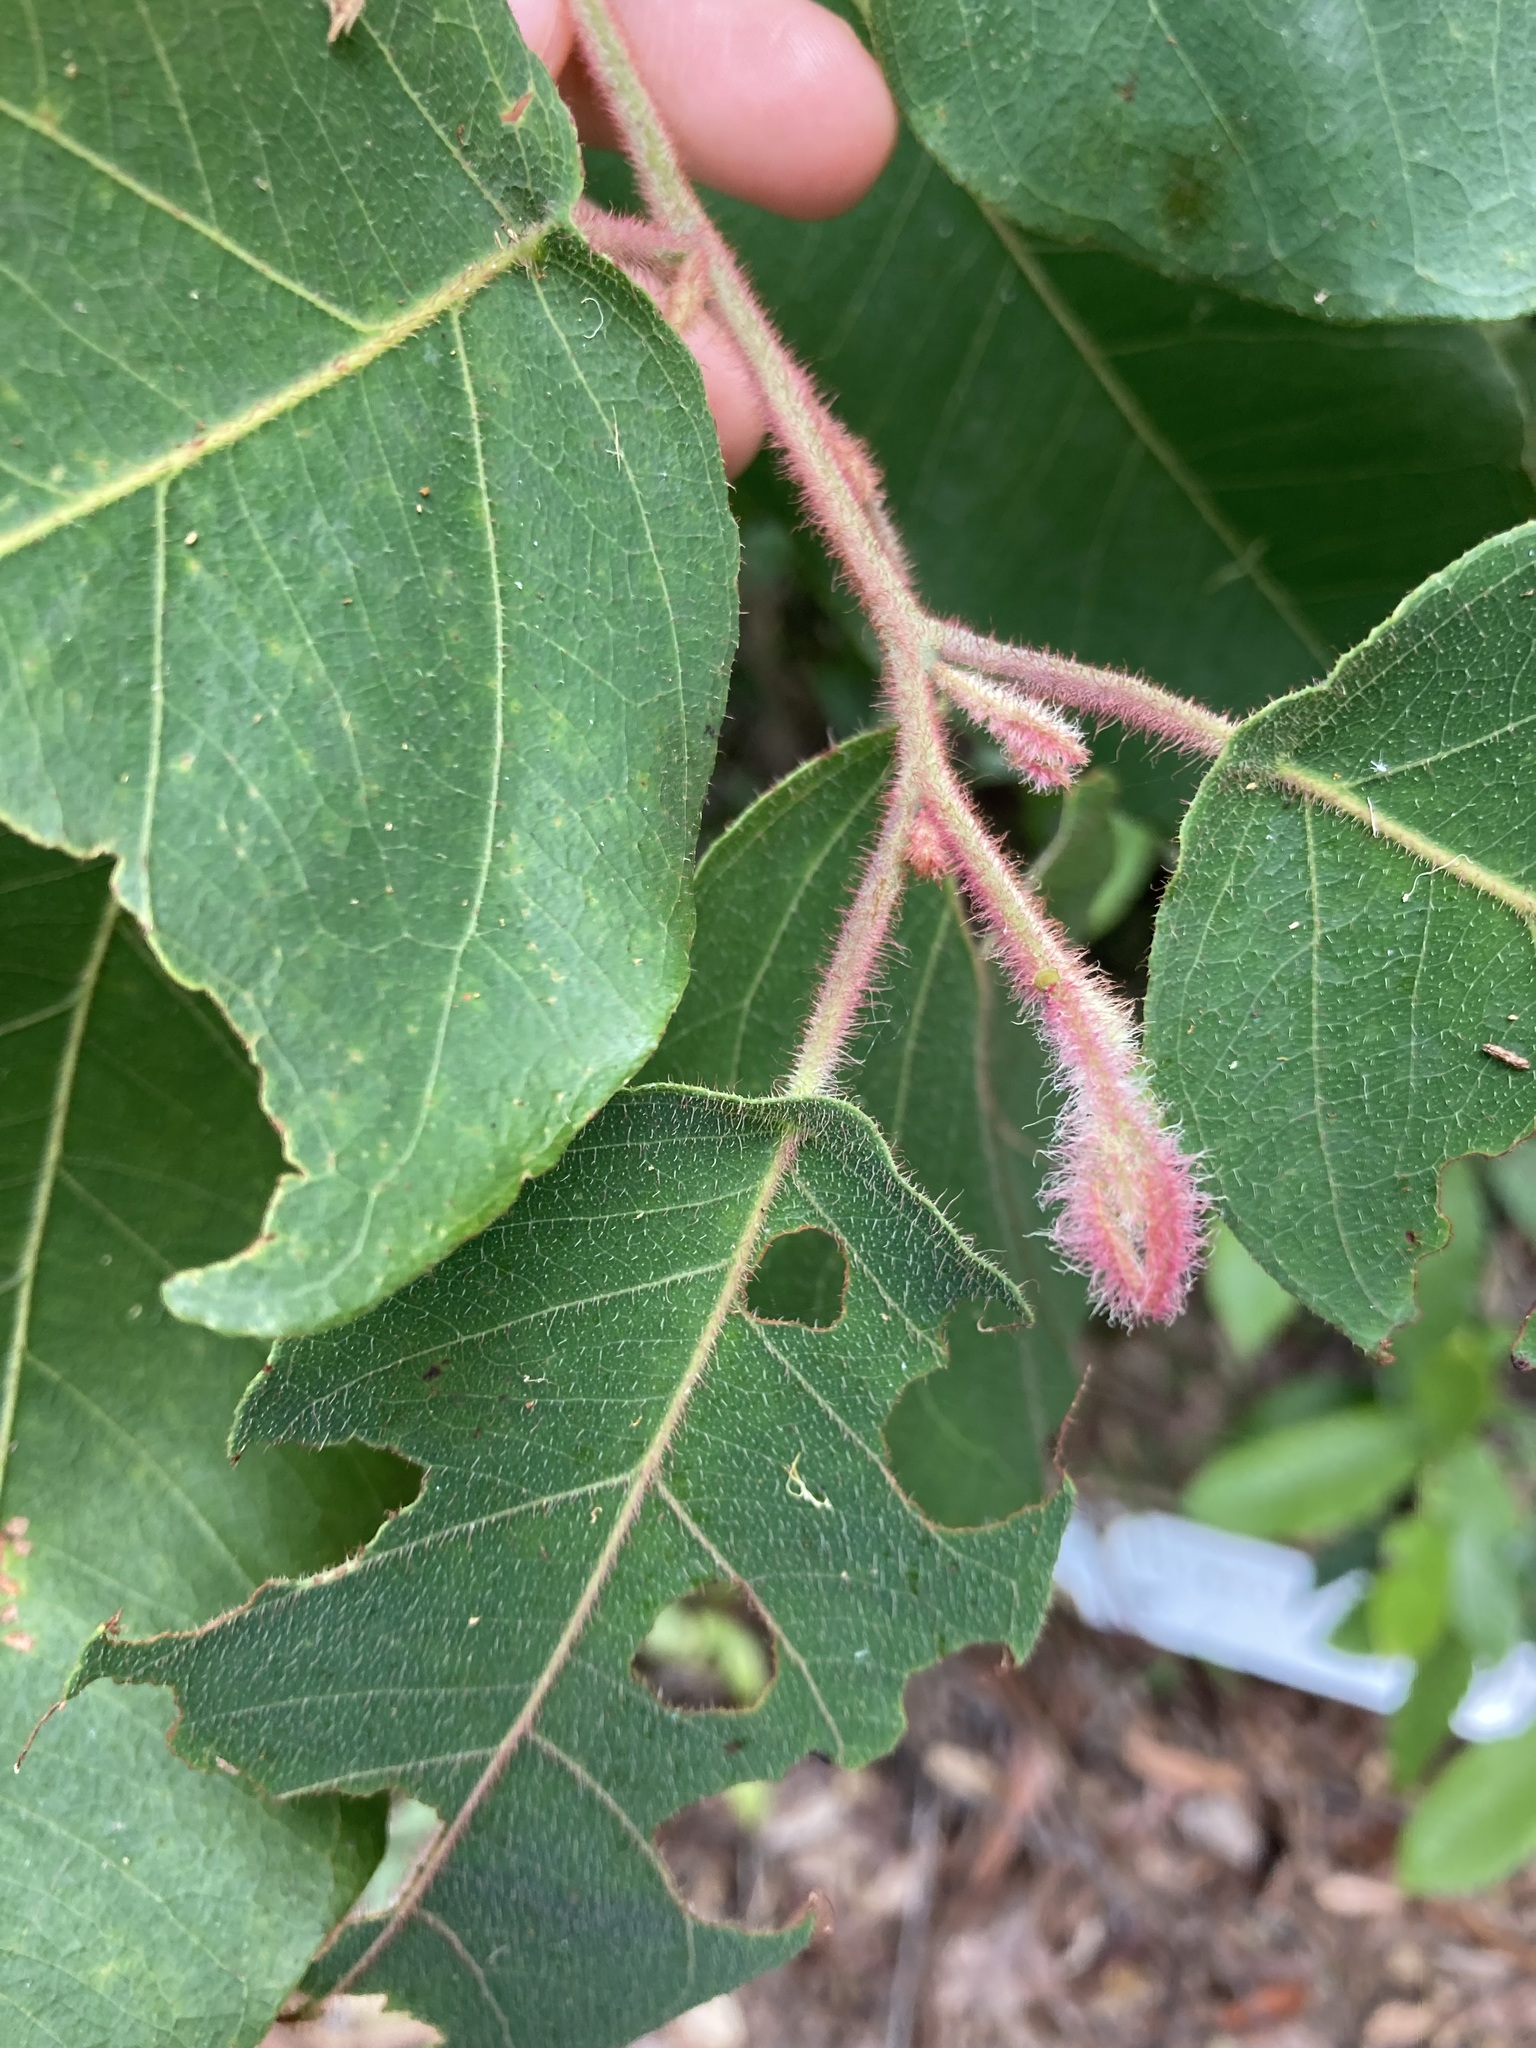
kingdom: Plantae
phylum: Tracheophyta
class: Magnoliopsida
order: Myrtales
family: Myrtaceae
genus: Corymbia
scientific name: Corymbia torelliana
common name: Cadaghi
